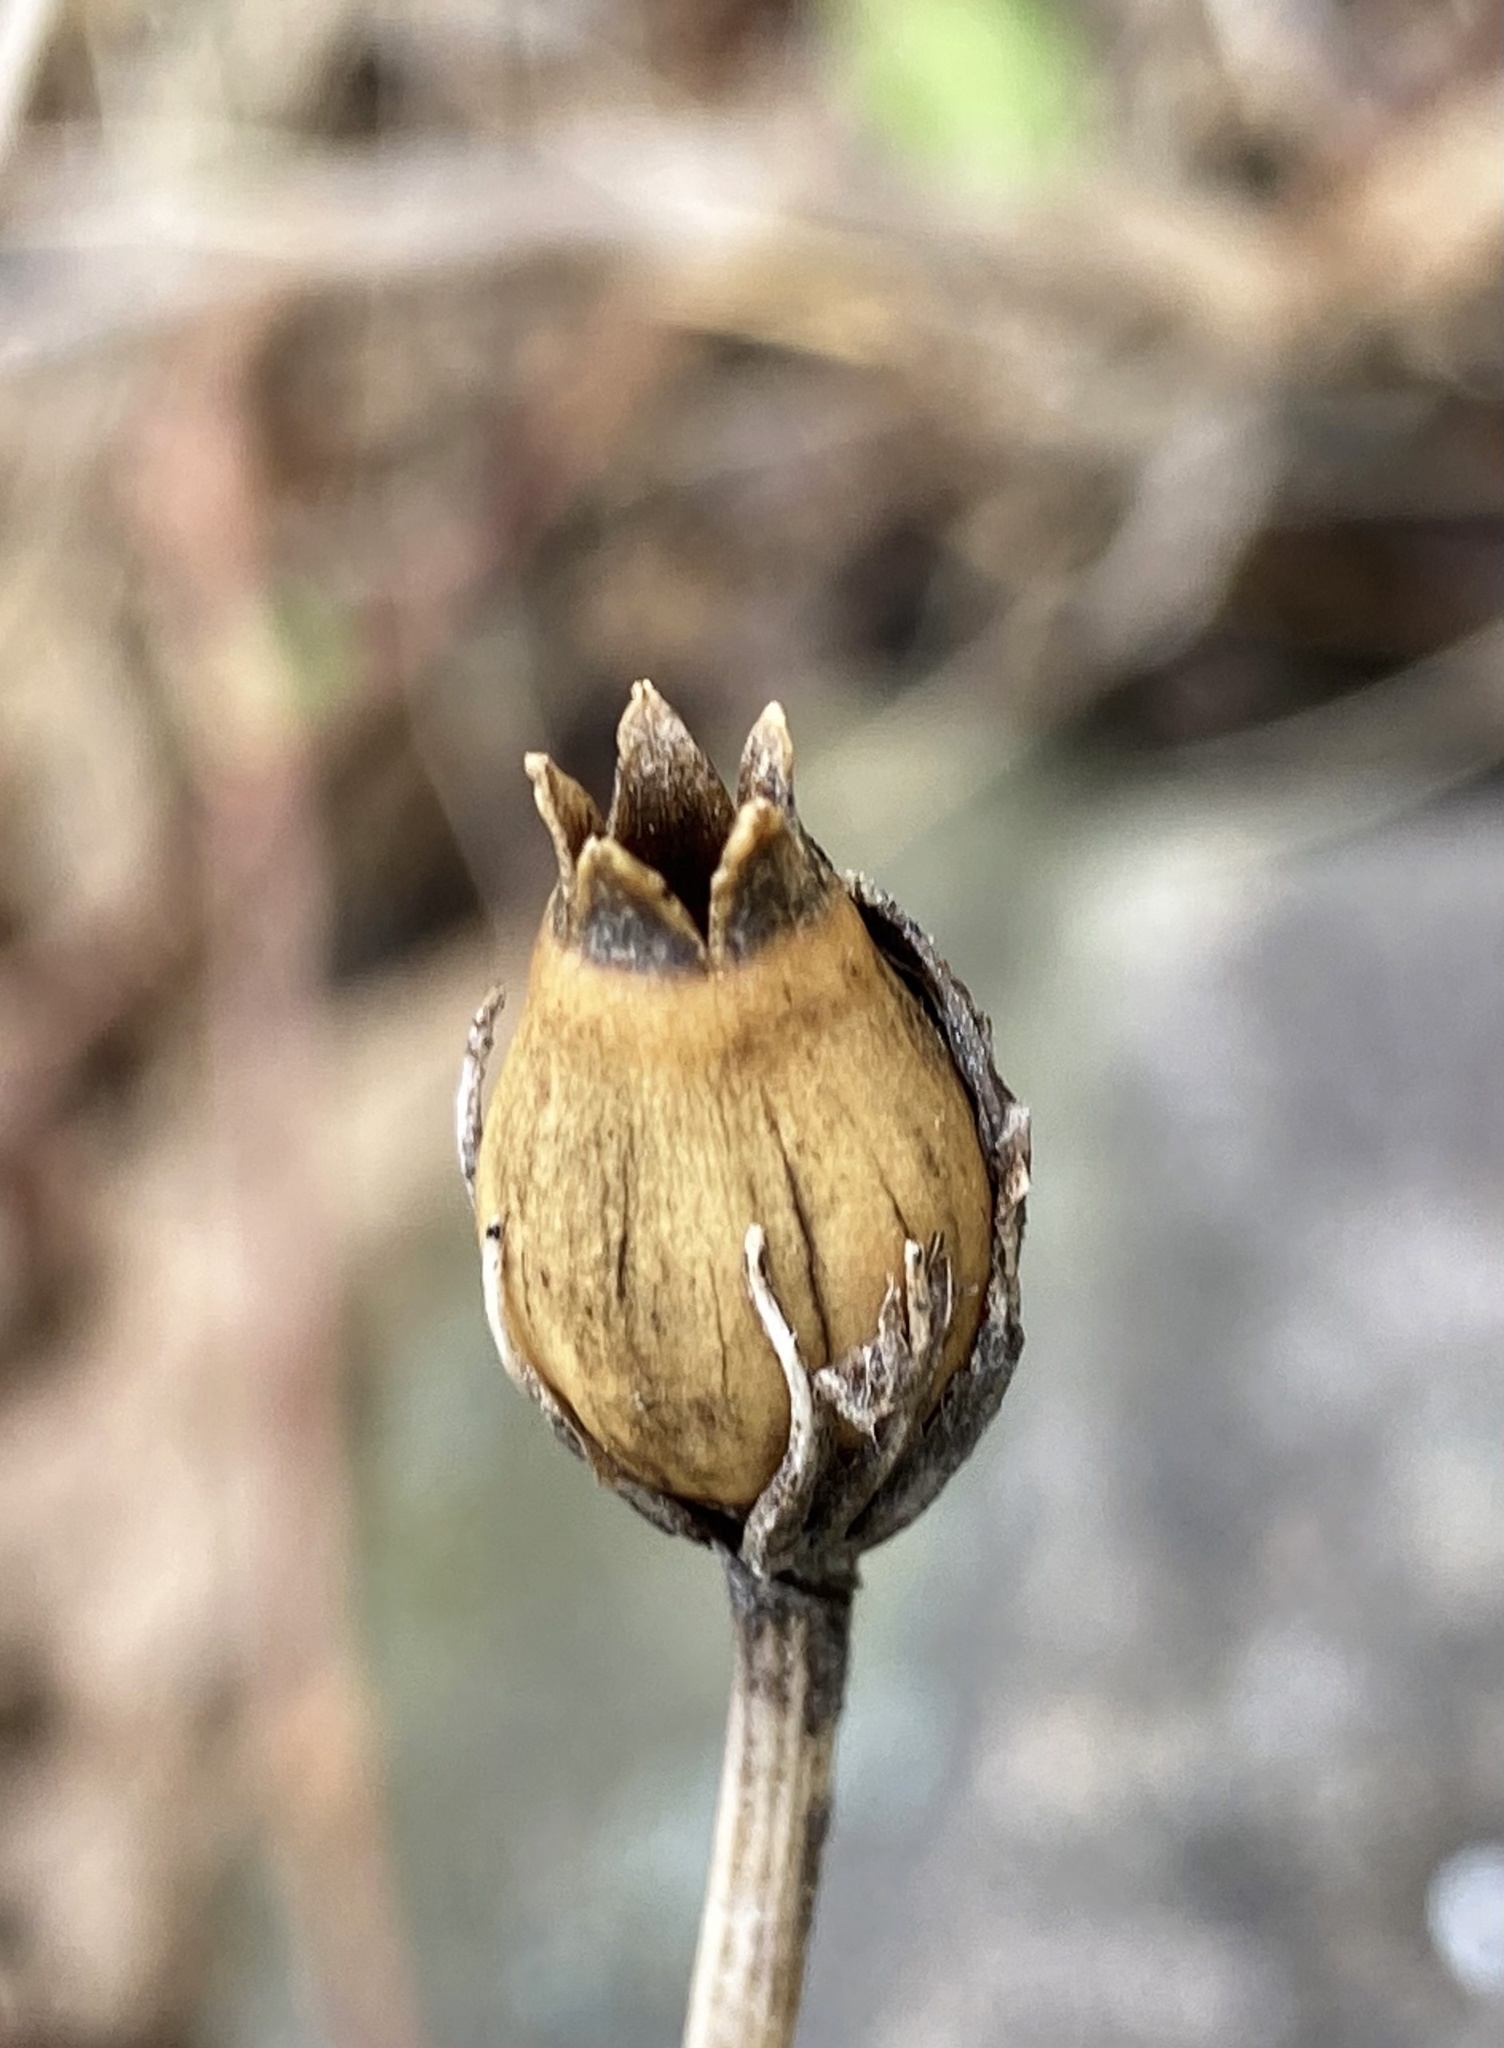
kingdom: Plantae
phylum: Tracheophyta
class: Magnoliopsida
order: Caryophyllales
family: Caryophyllaceae
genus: Silene
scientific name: Silene coronaria
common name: Rose campion
